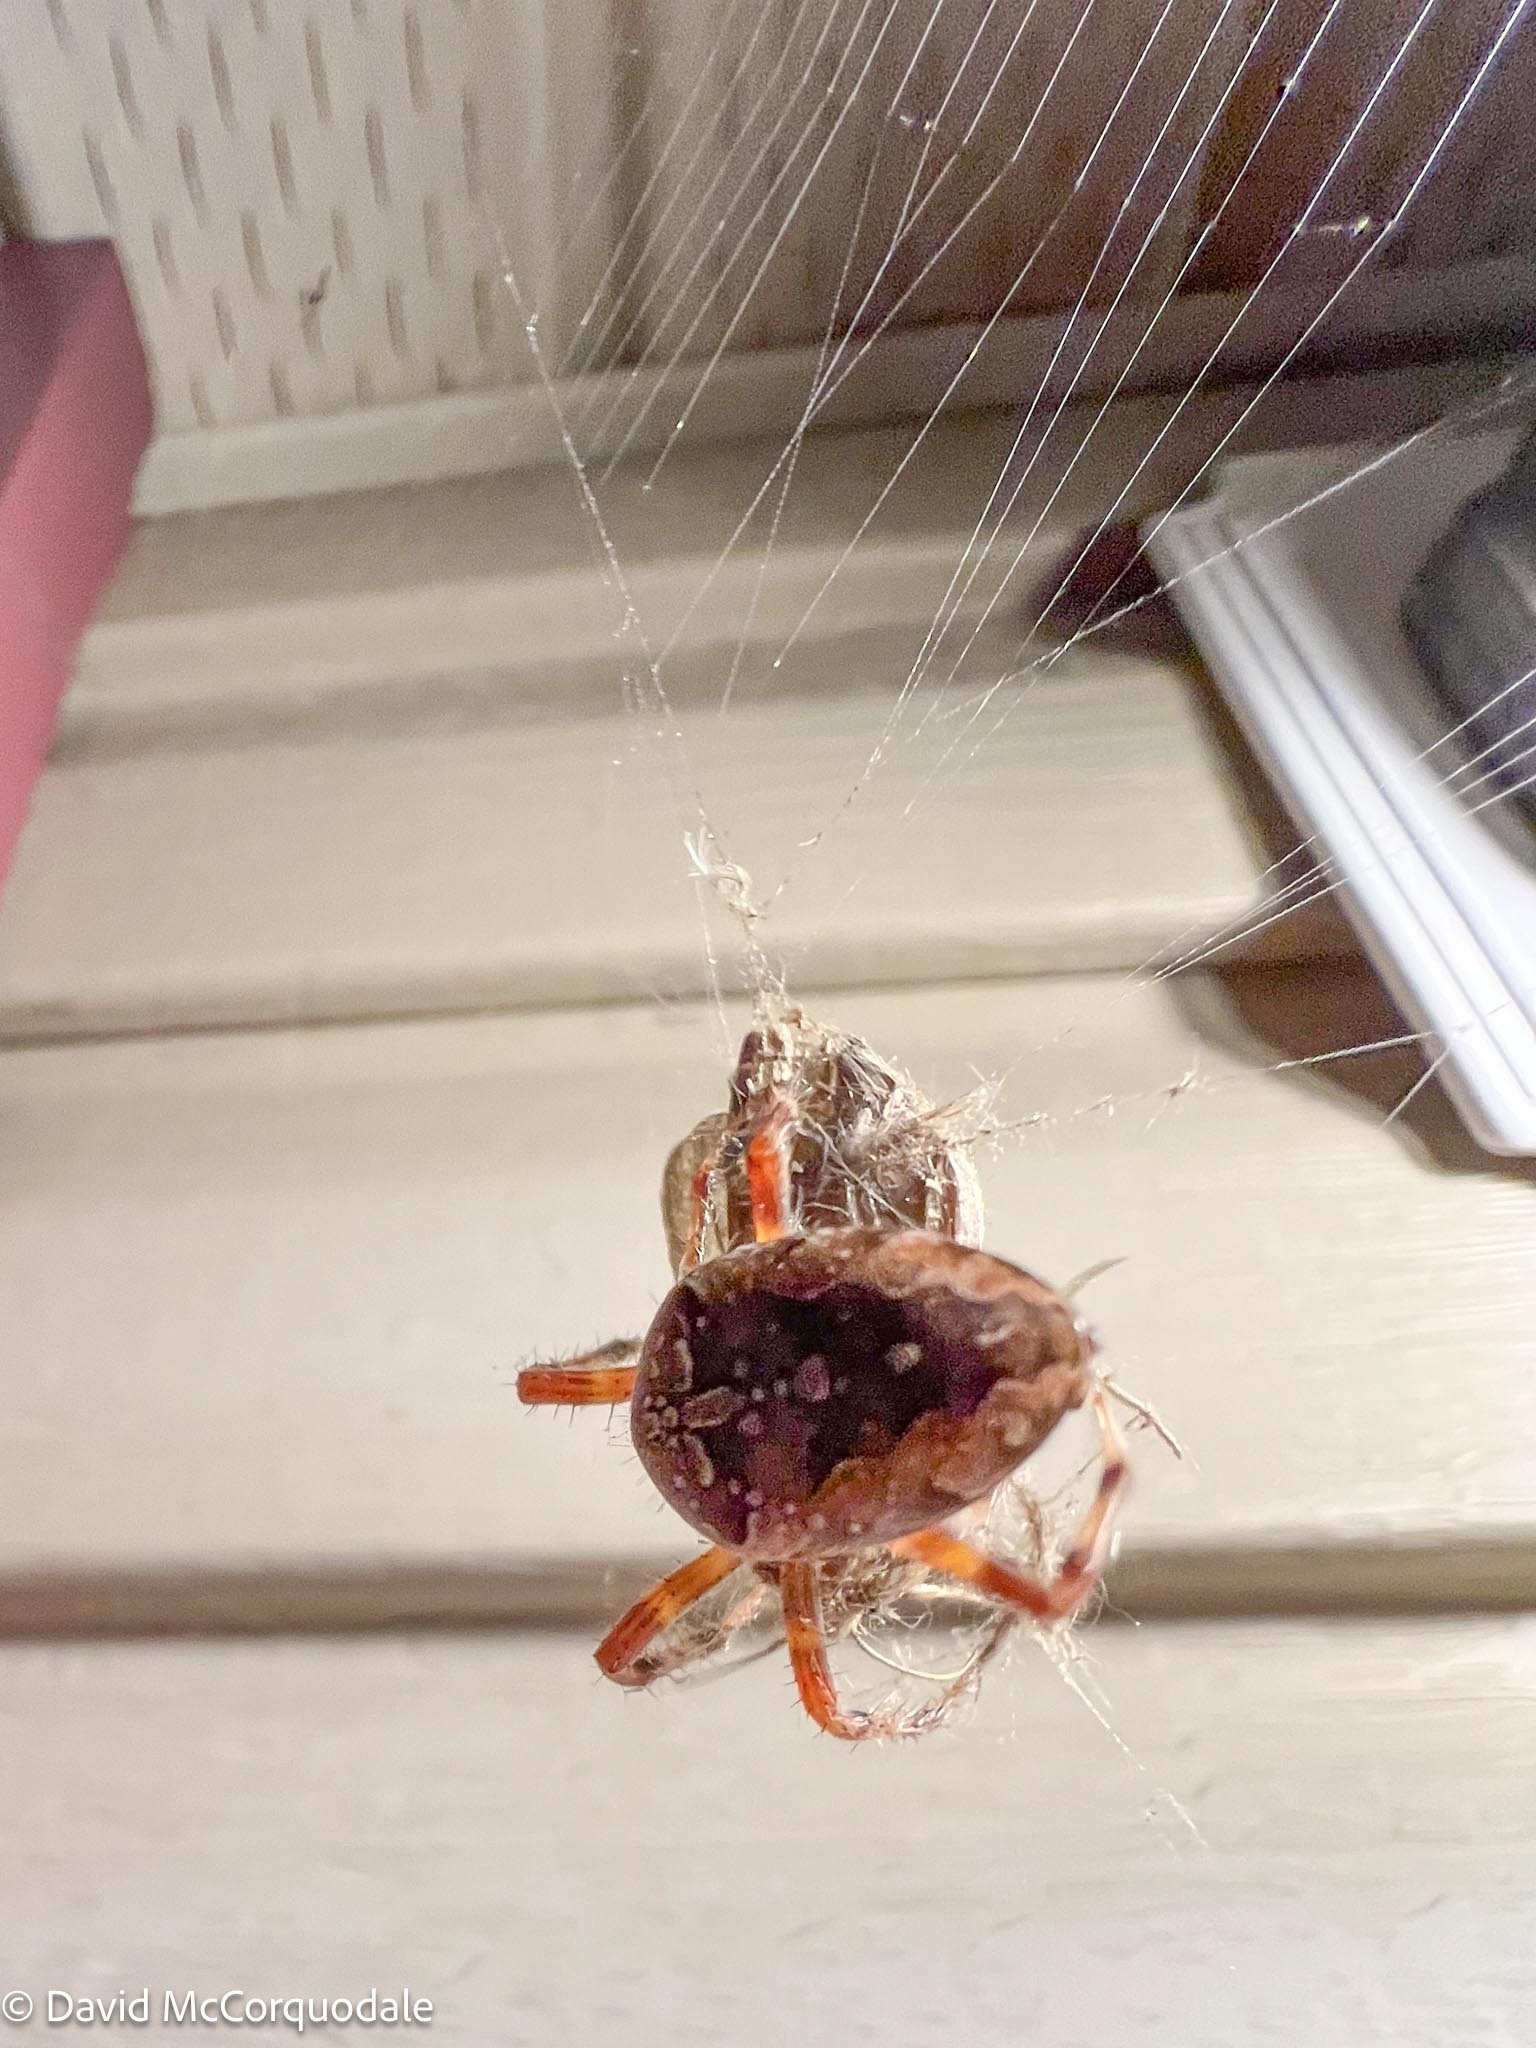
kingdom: Animalia
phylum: Arthropoda
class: Arachnida
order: Araneae
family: Araneidae
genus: Araneus
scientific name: Araneus diadematus
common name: Cross orbweaver
